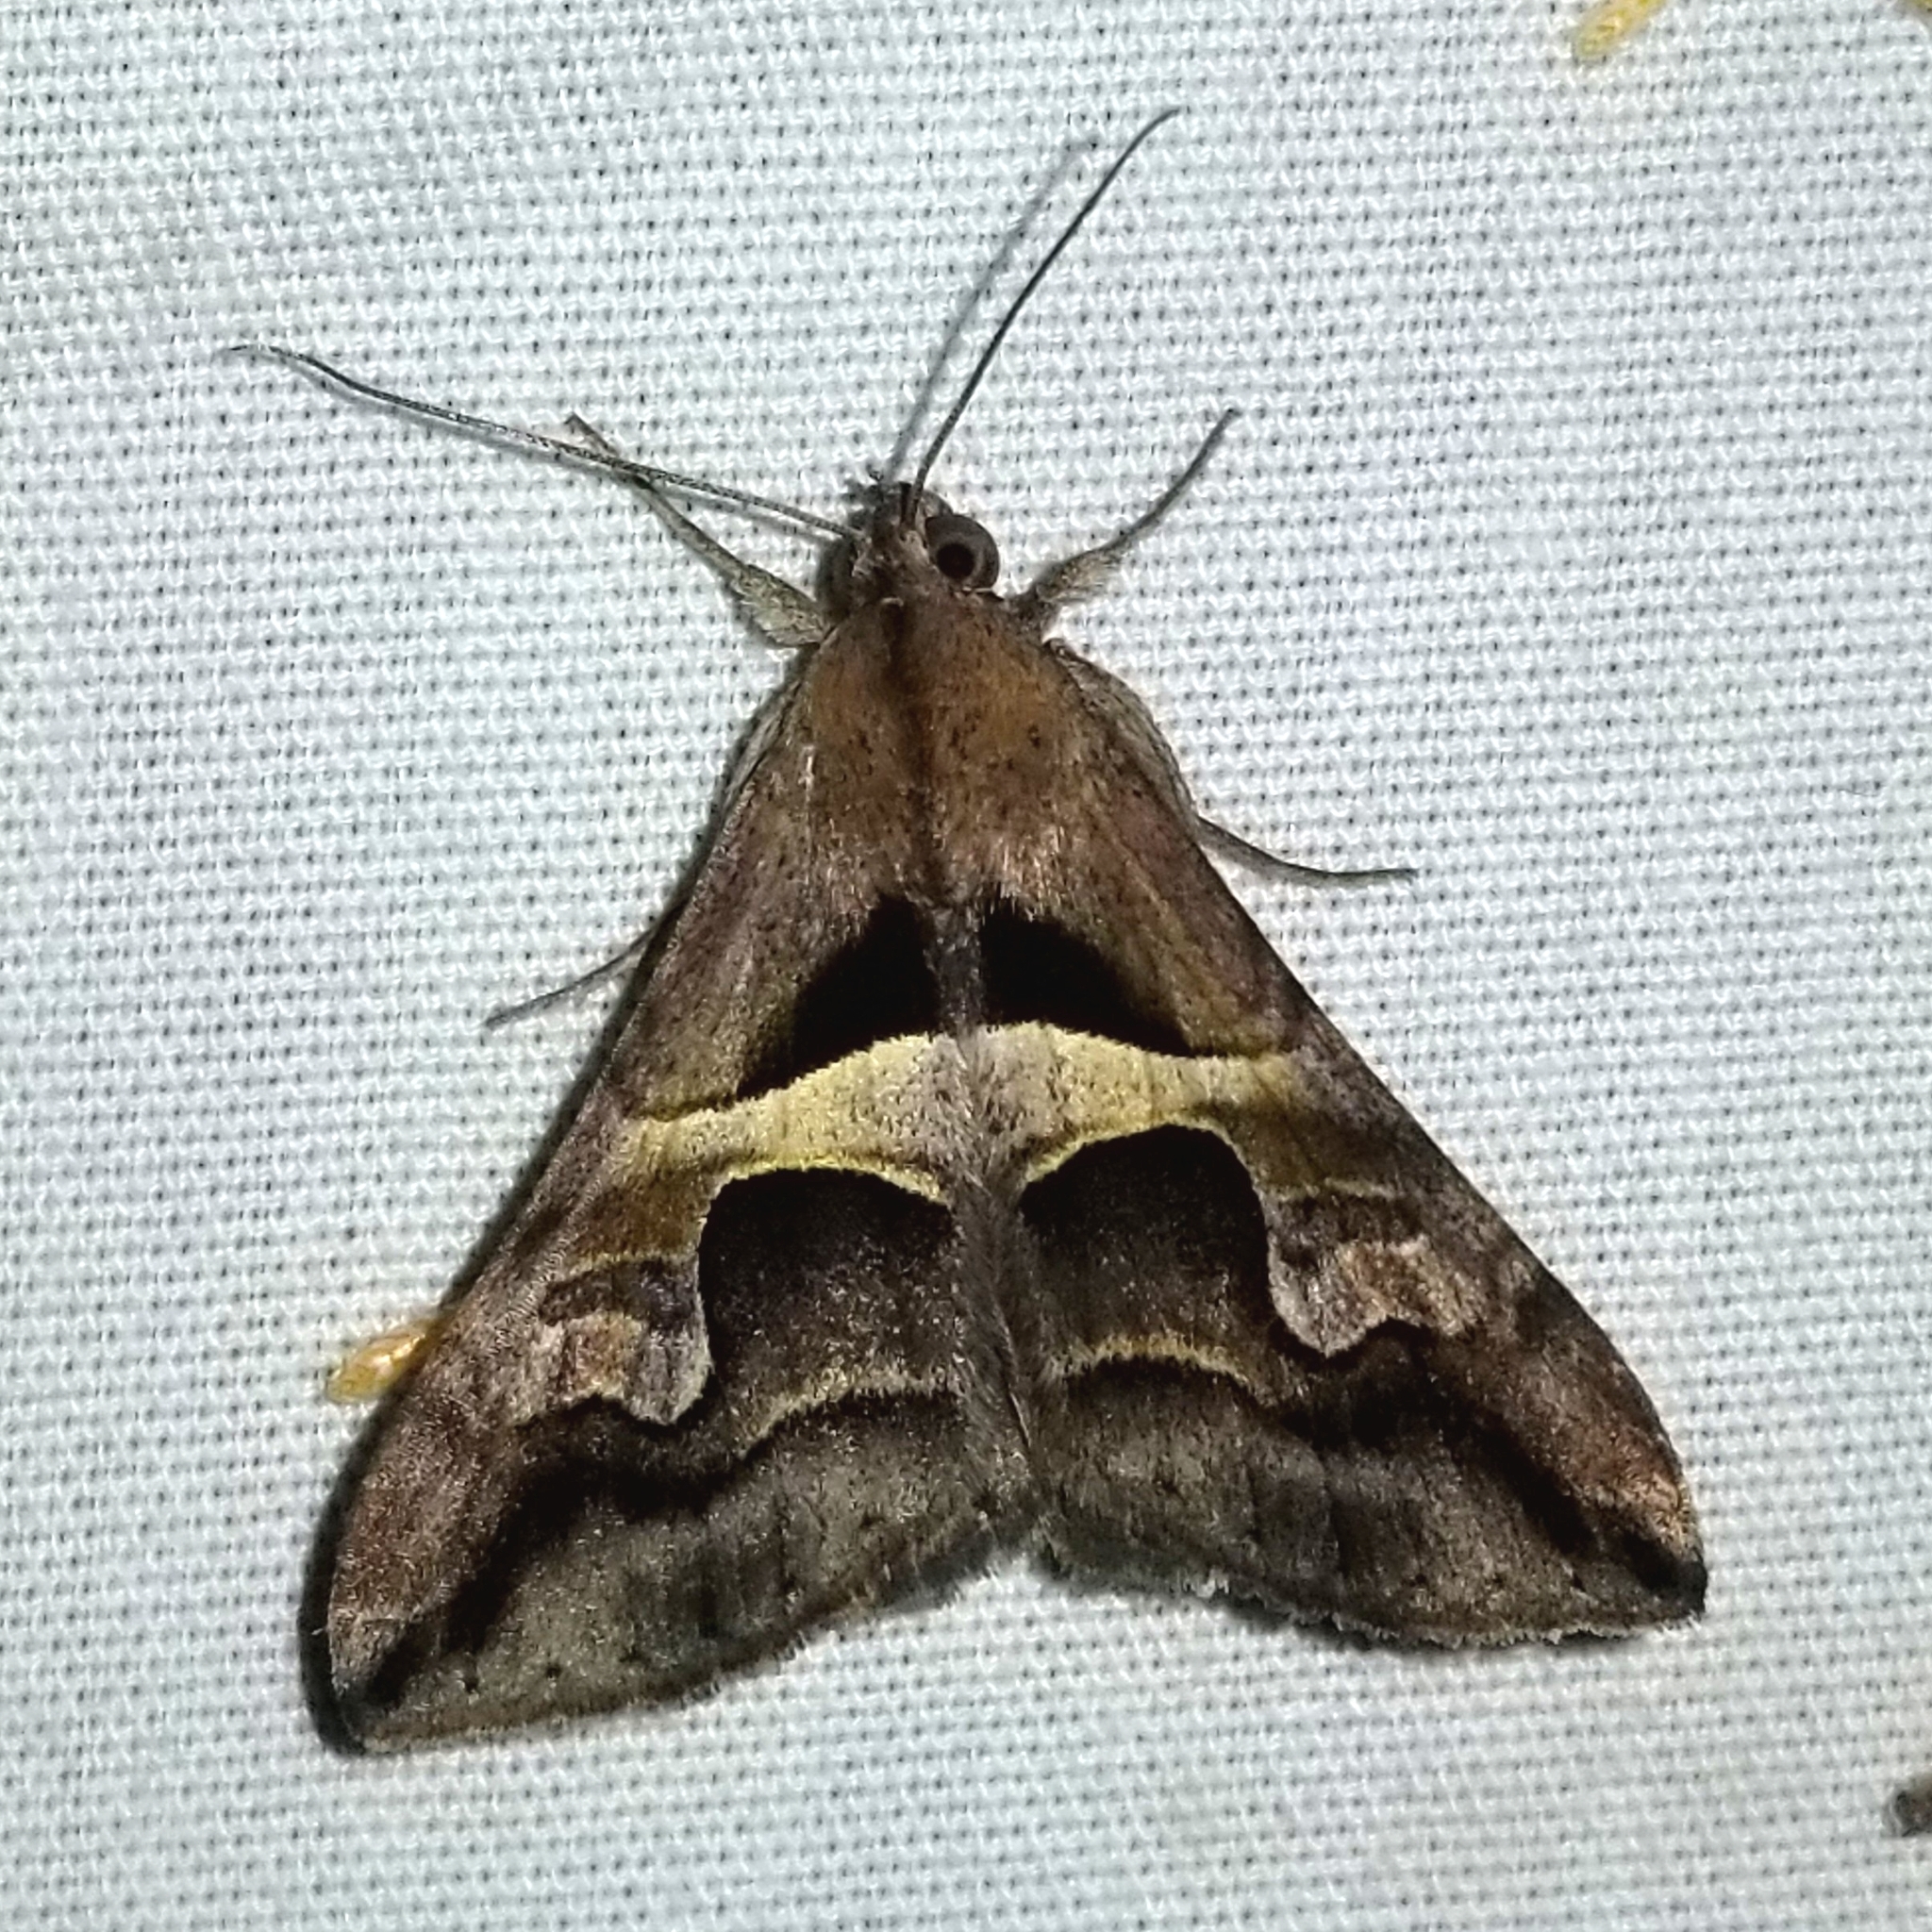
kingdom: Animalia
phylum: Arthropoda
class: Insecta
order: Lepidoptera
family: Erebidae
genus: Melipotis
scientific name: Melipotis cellaris
